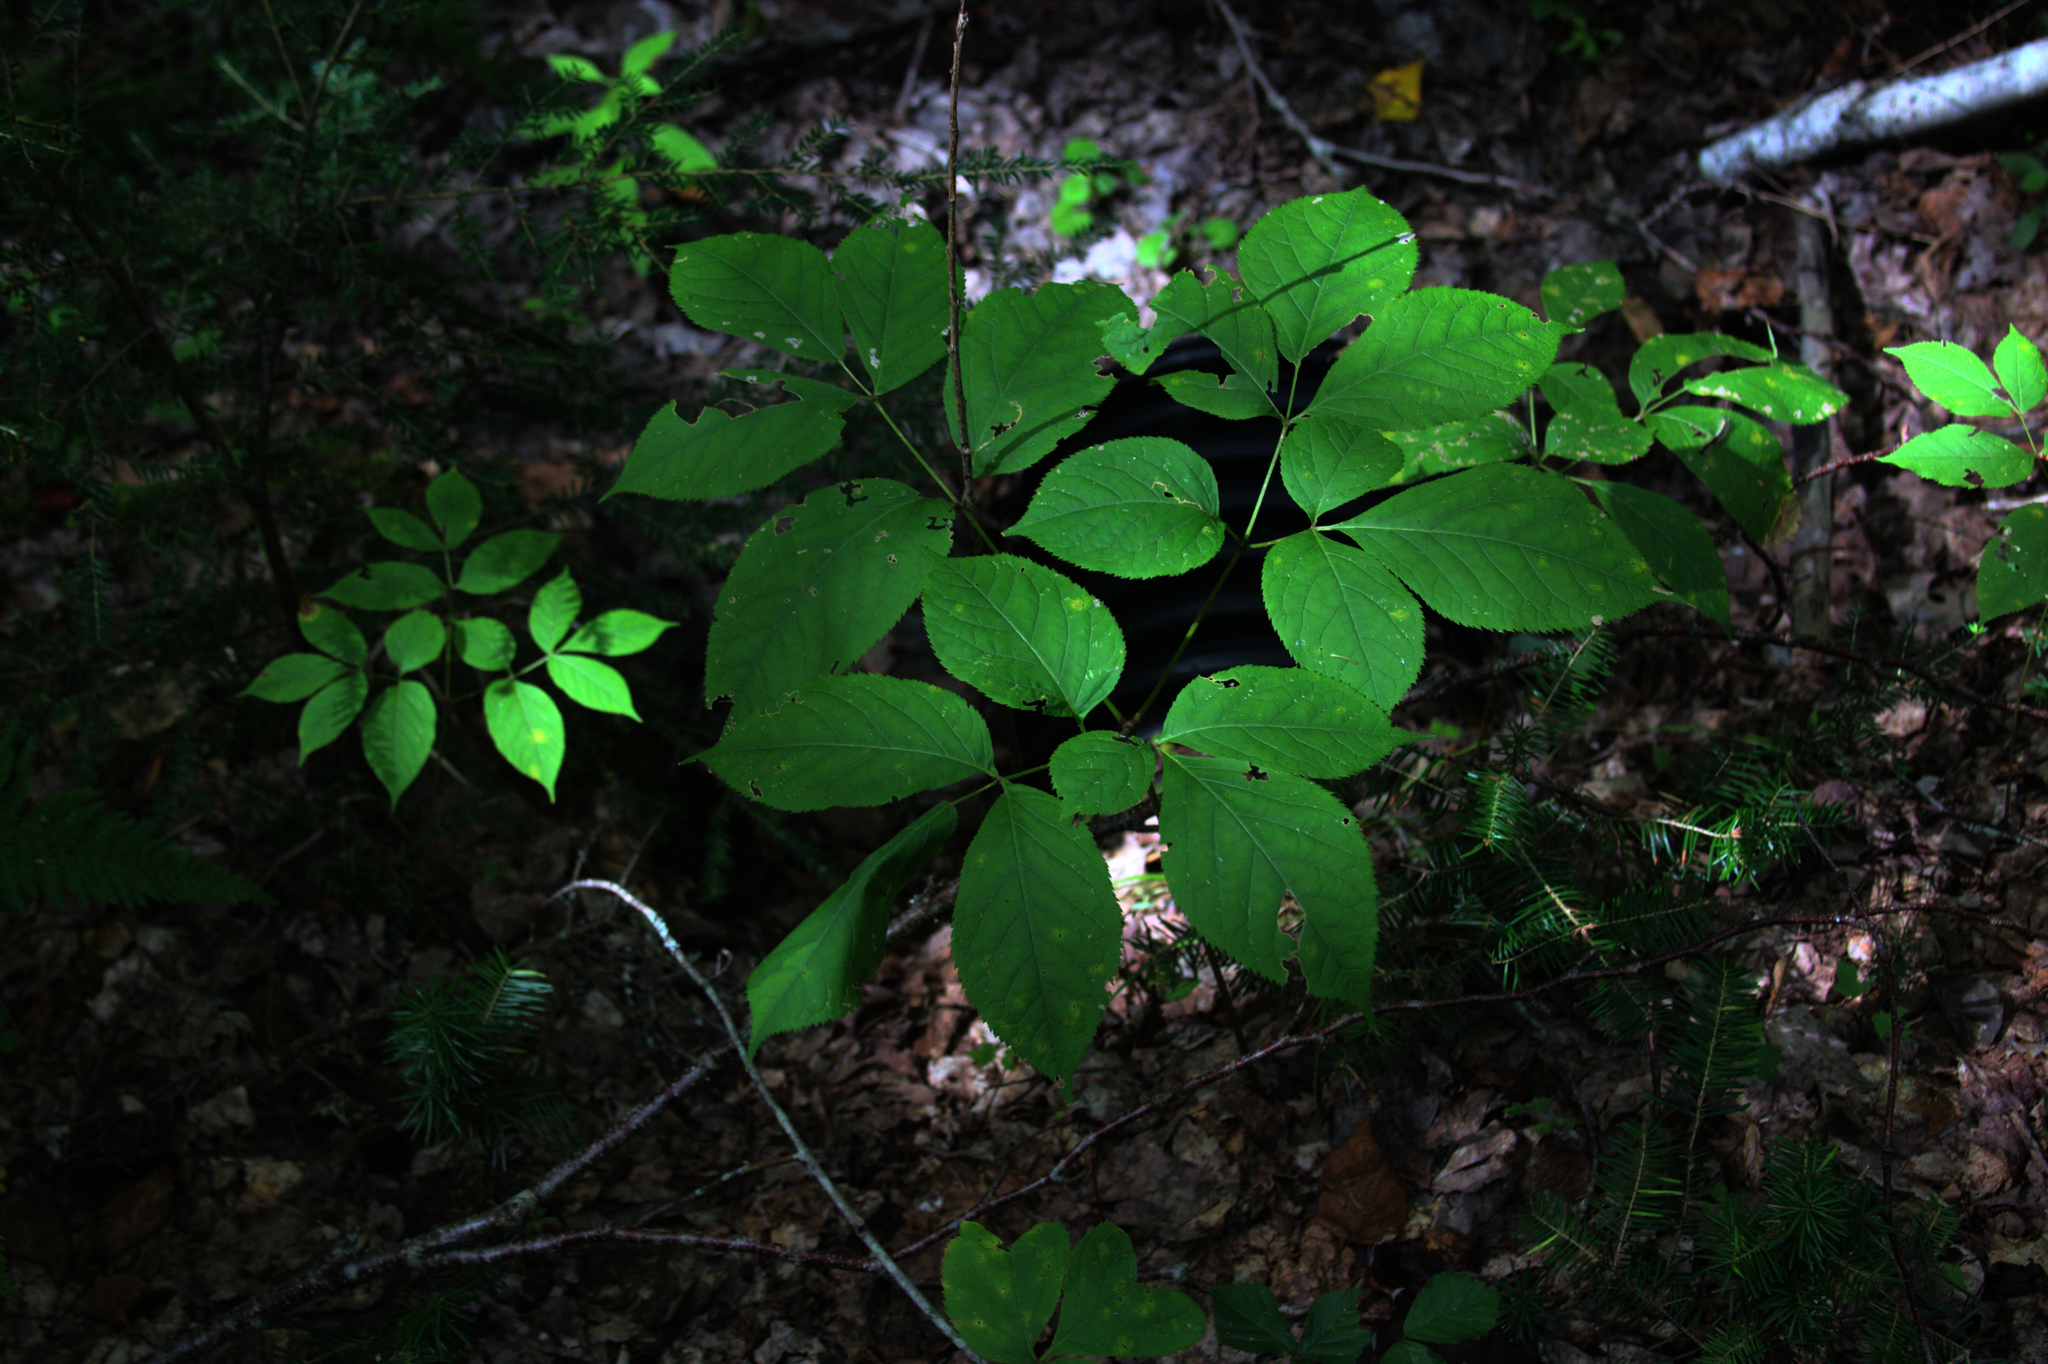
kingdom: Plantae
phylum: Tracheophyta
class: Magnoliopsida
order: Apiales
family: Araliaceae
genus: Aralia
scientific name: Aralia nudicaulis
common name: Wild sarsaparilla
